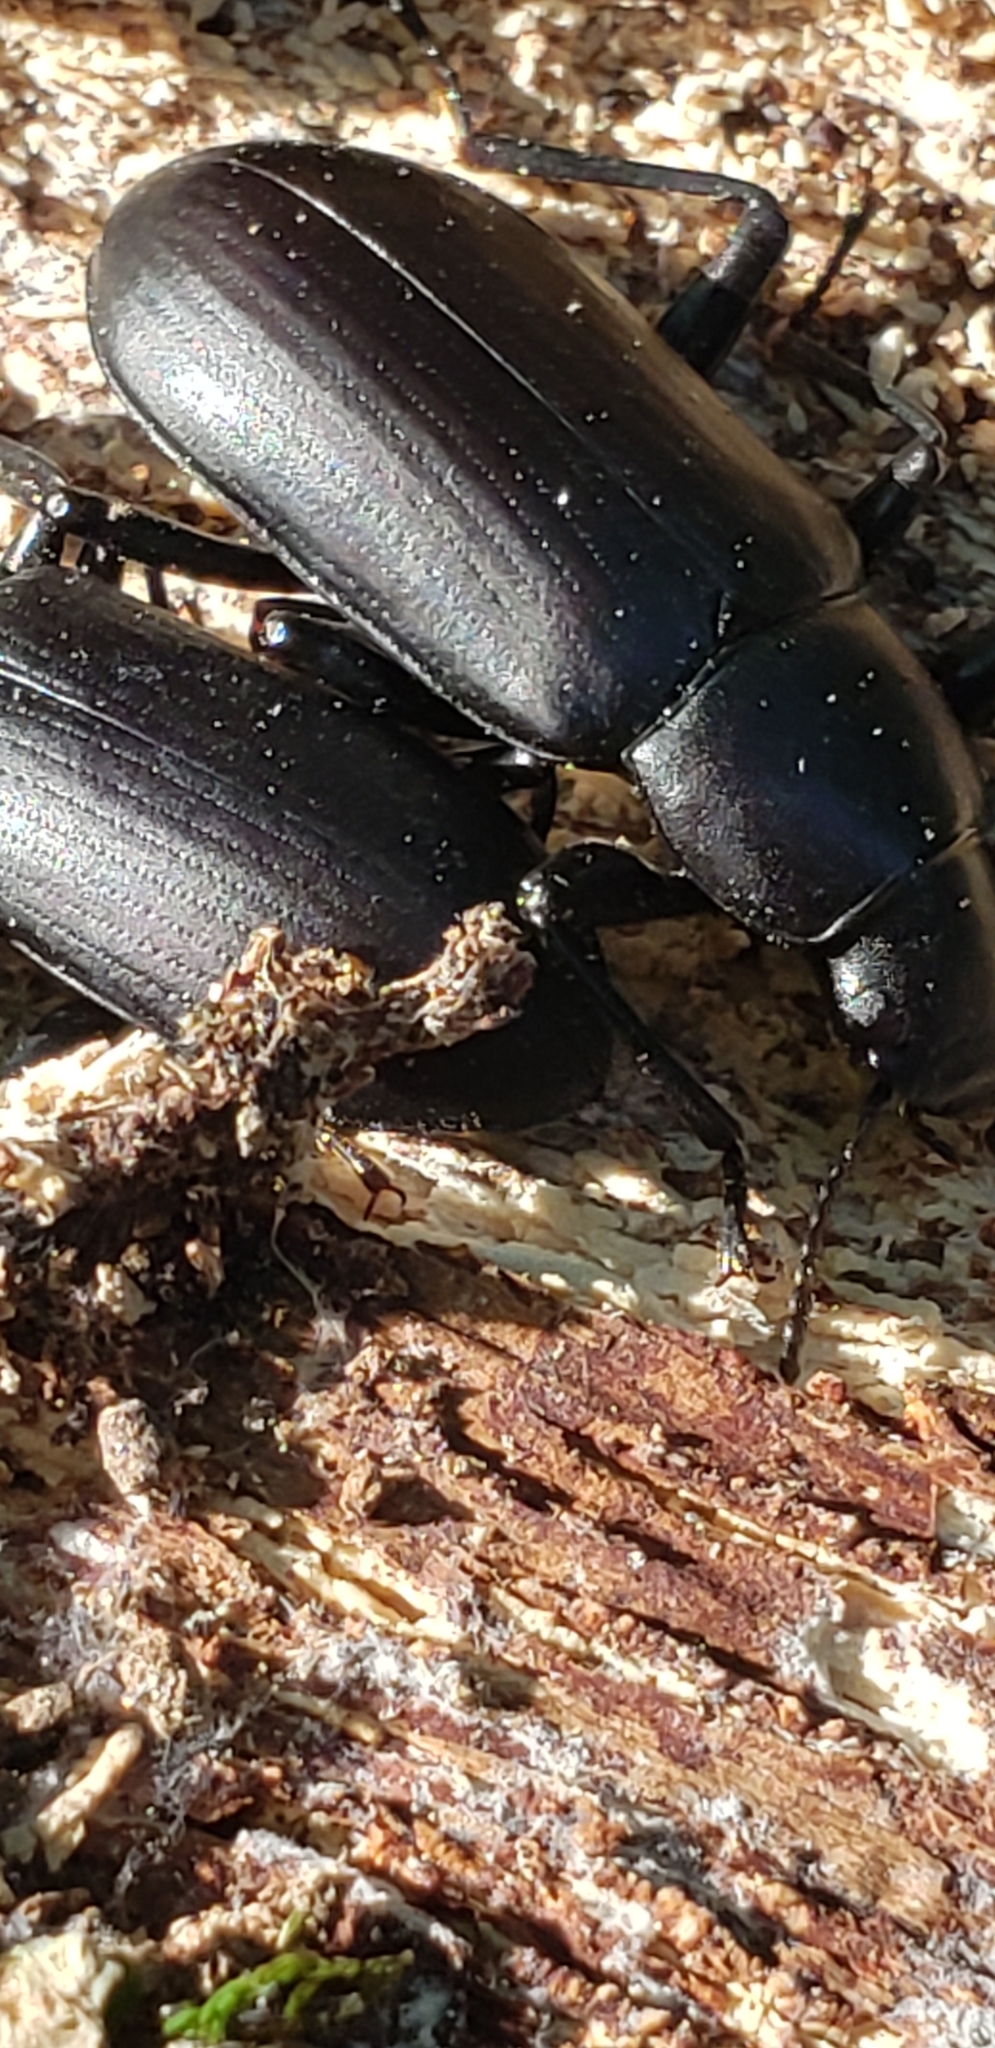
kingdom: Animalia
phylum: Arthropoda
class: Insecta
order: Coleoptera
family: Tenebrionidae
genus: Alobates
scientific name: Alobates
